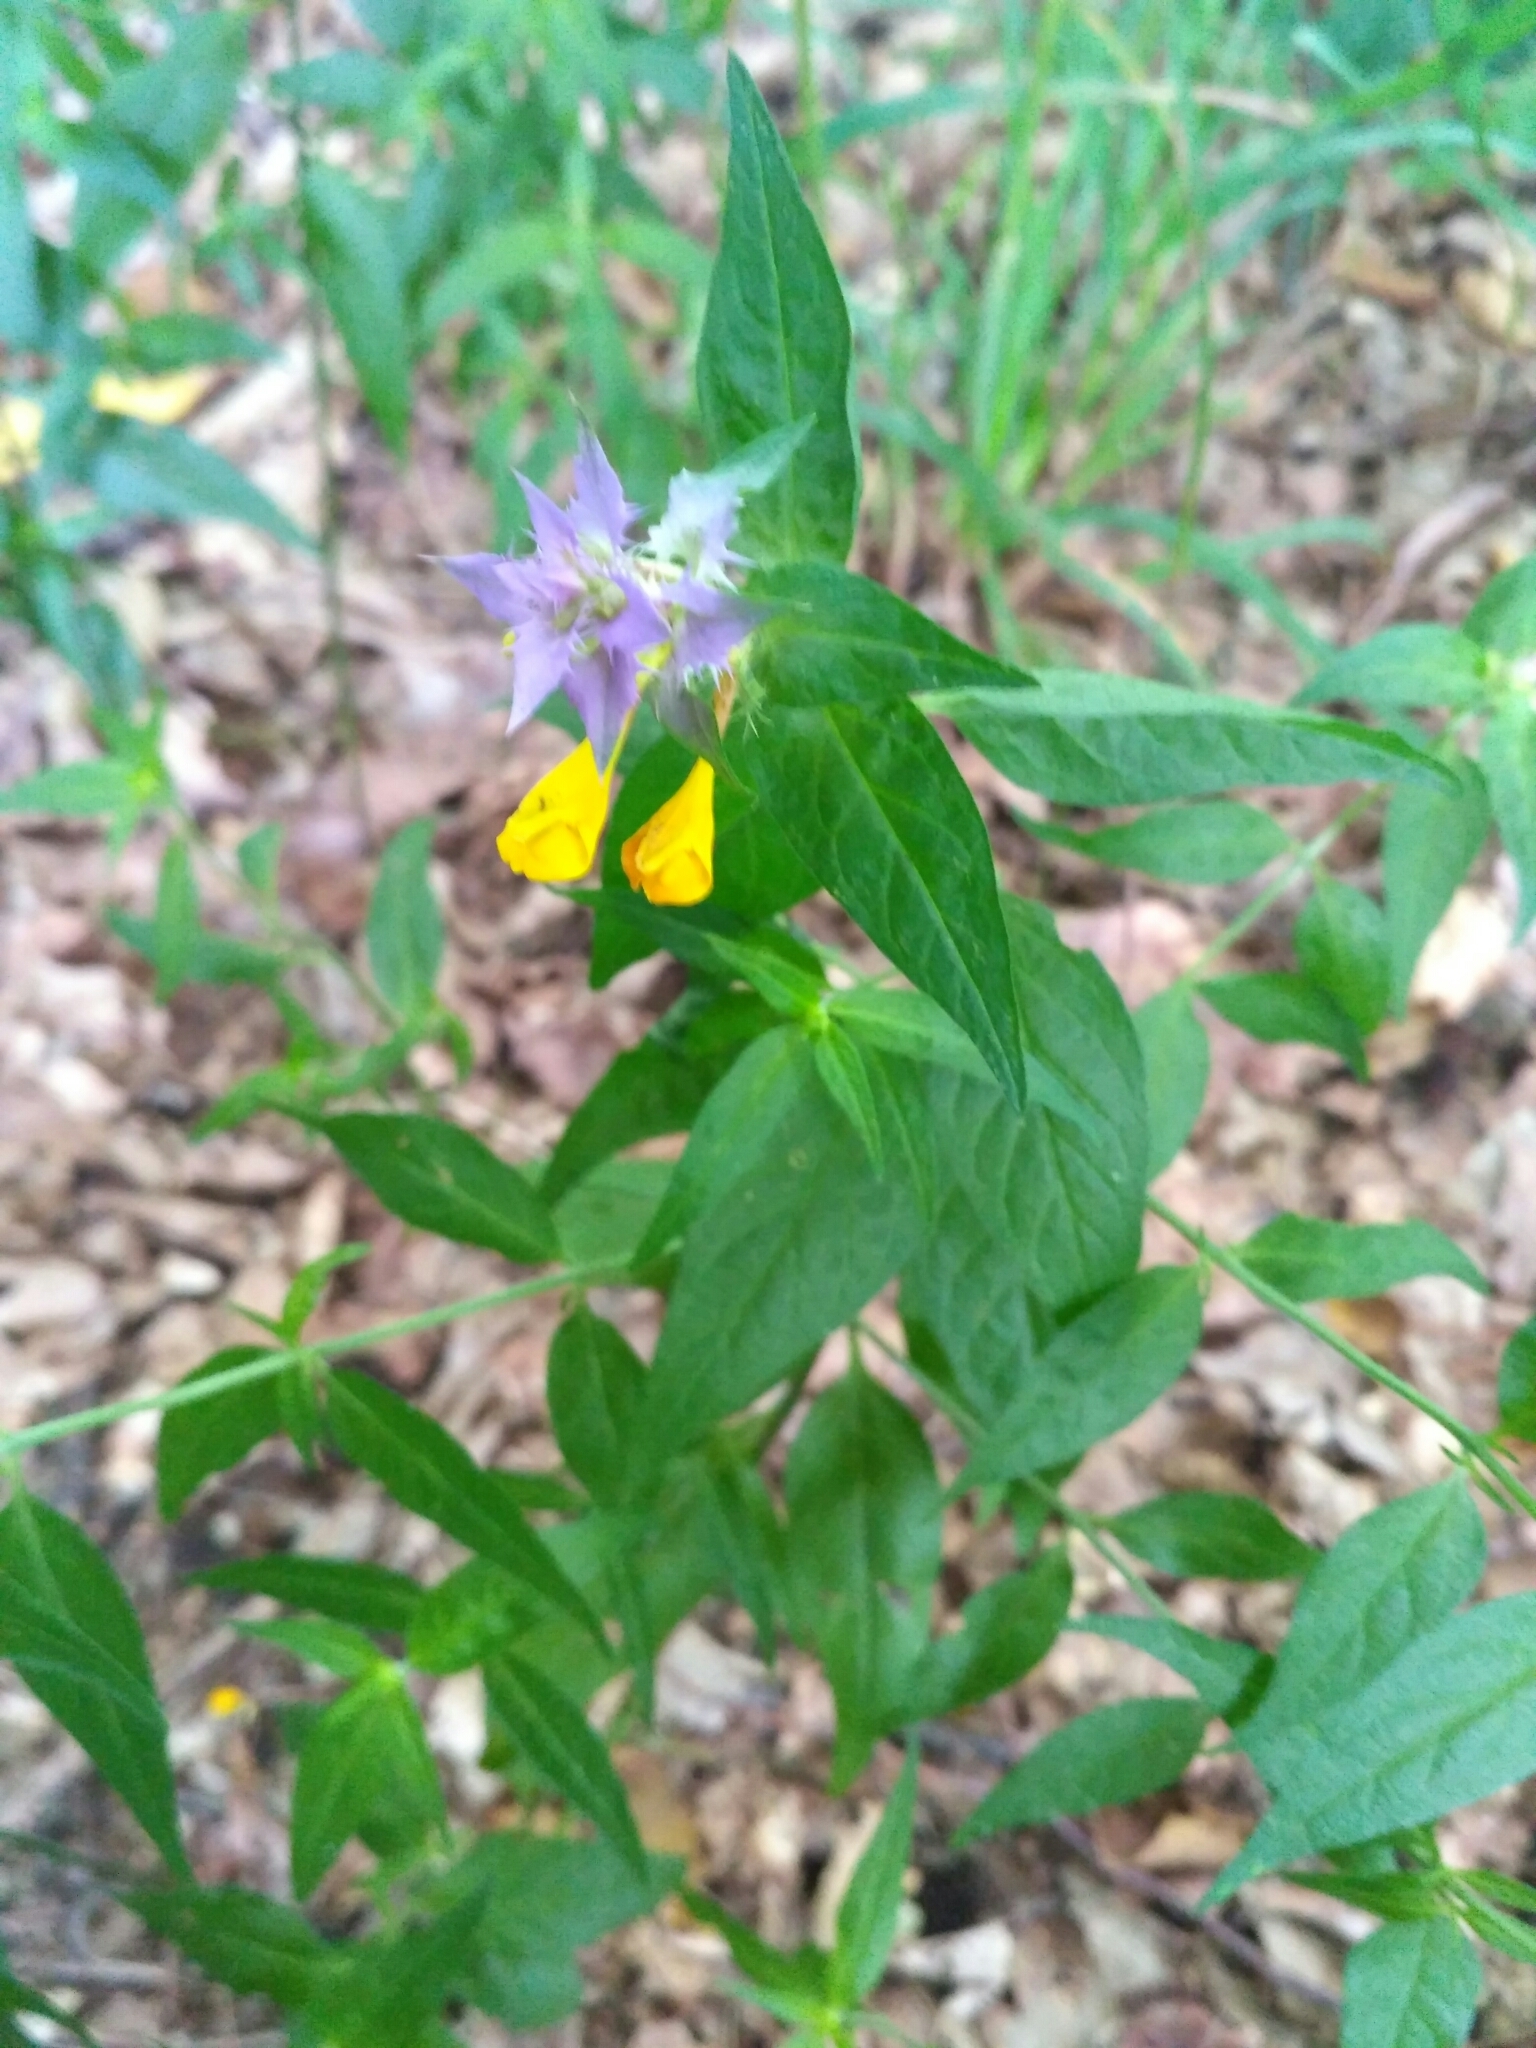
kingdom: Plantae
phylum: Tracheophyta
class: Magnoliopsida
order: Lamiales
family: Orobanchaceae
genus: Melampyrum
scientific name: Melampyrum nemorosum
